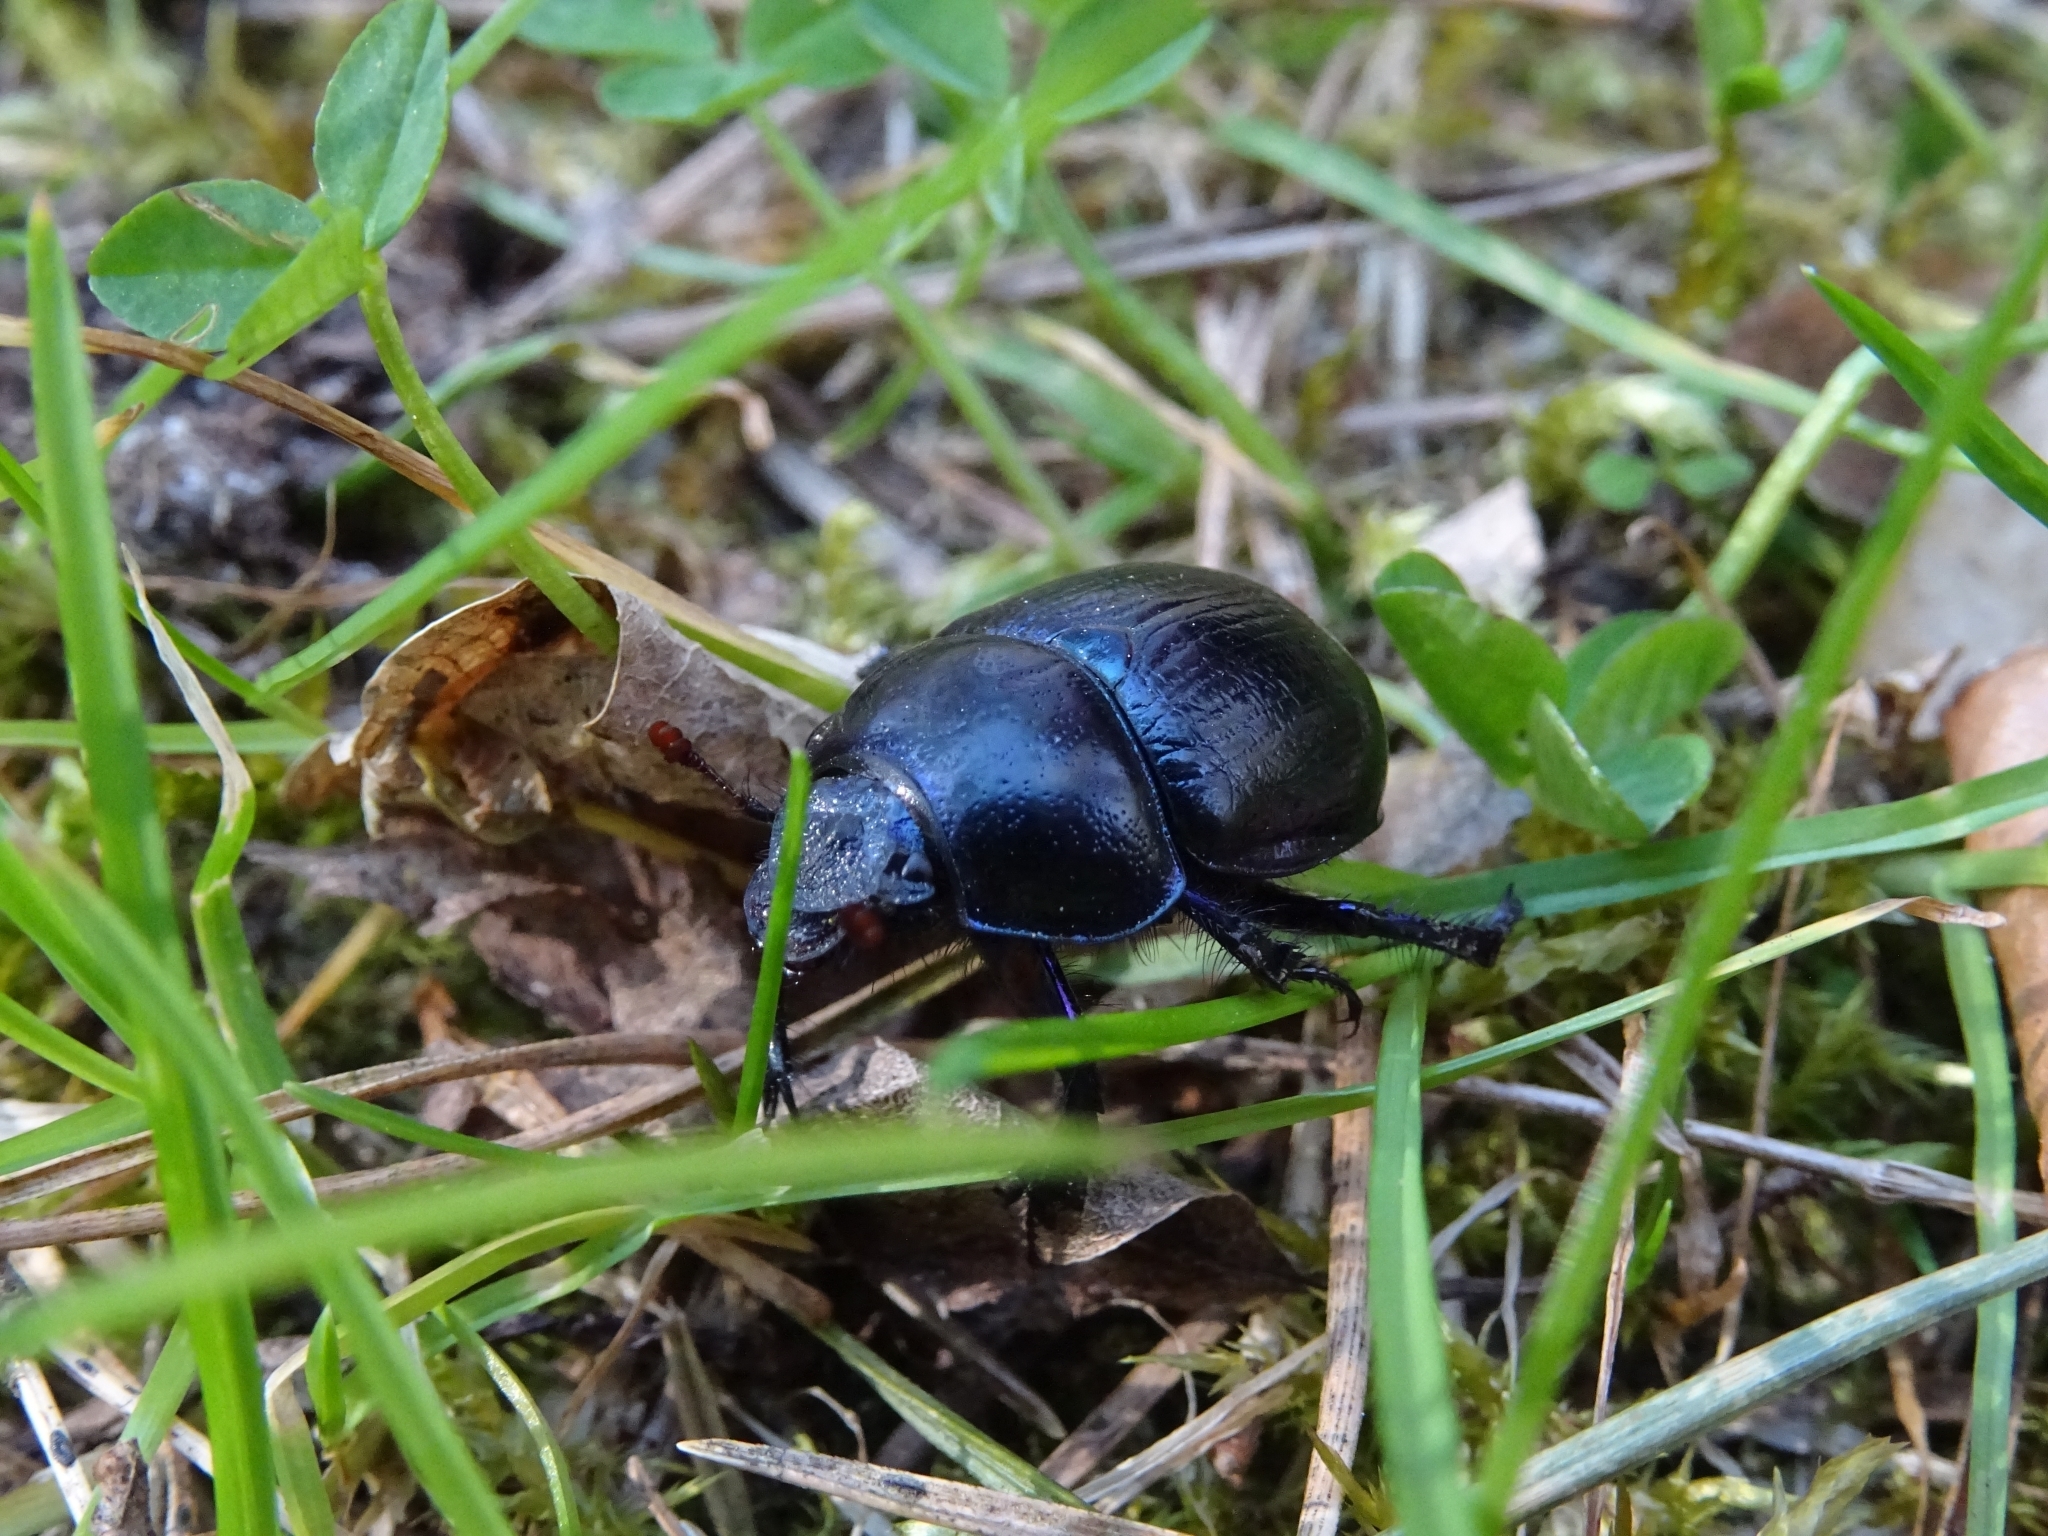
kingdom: Animalia
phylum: Arthropoda
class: Insecta
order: Coleoptera
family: Geotrupidae
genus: Anoplotrupes
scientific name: Anoplotrupes stercorosus
